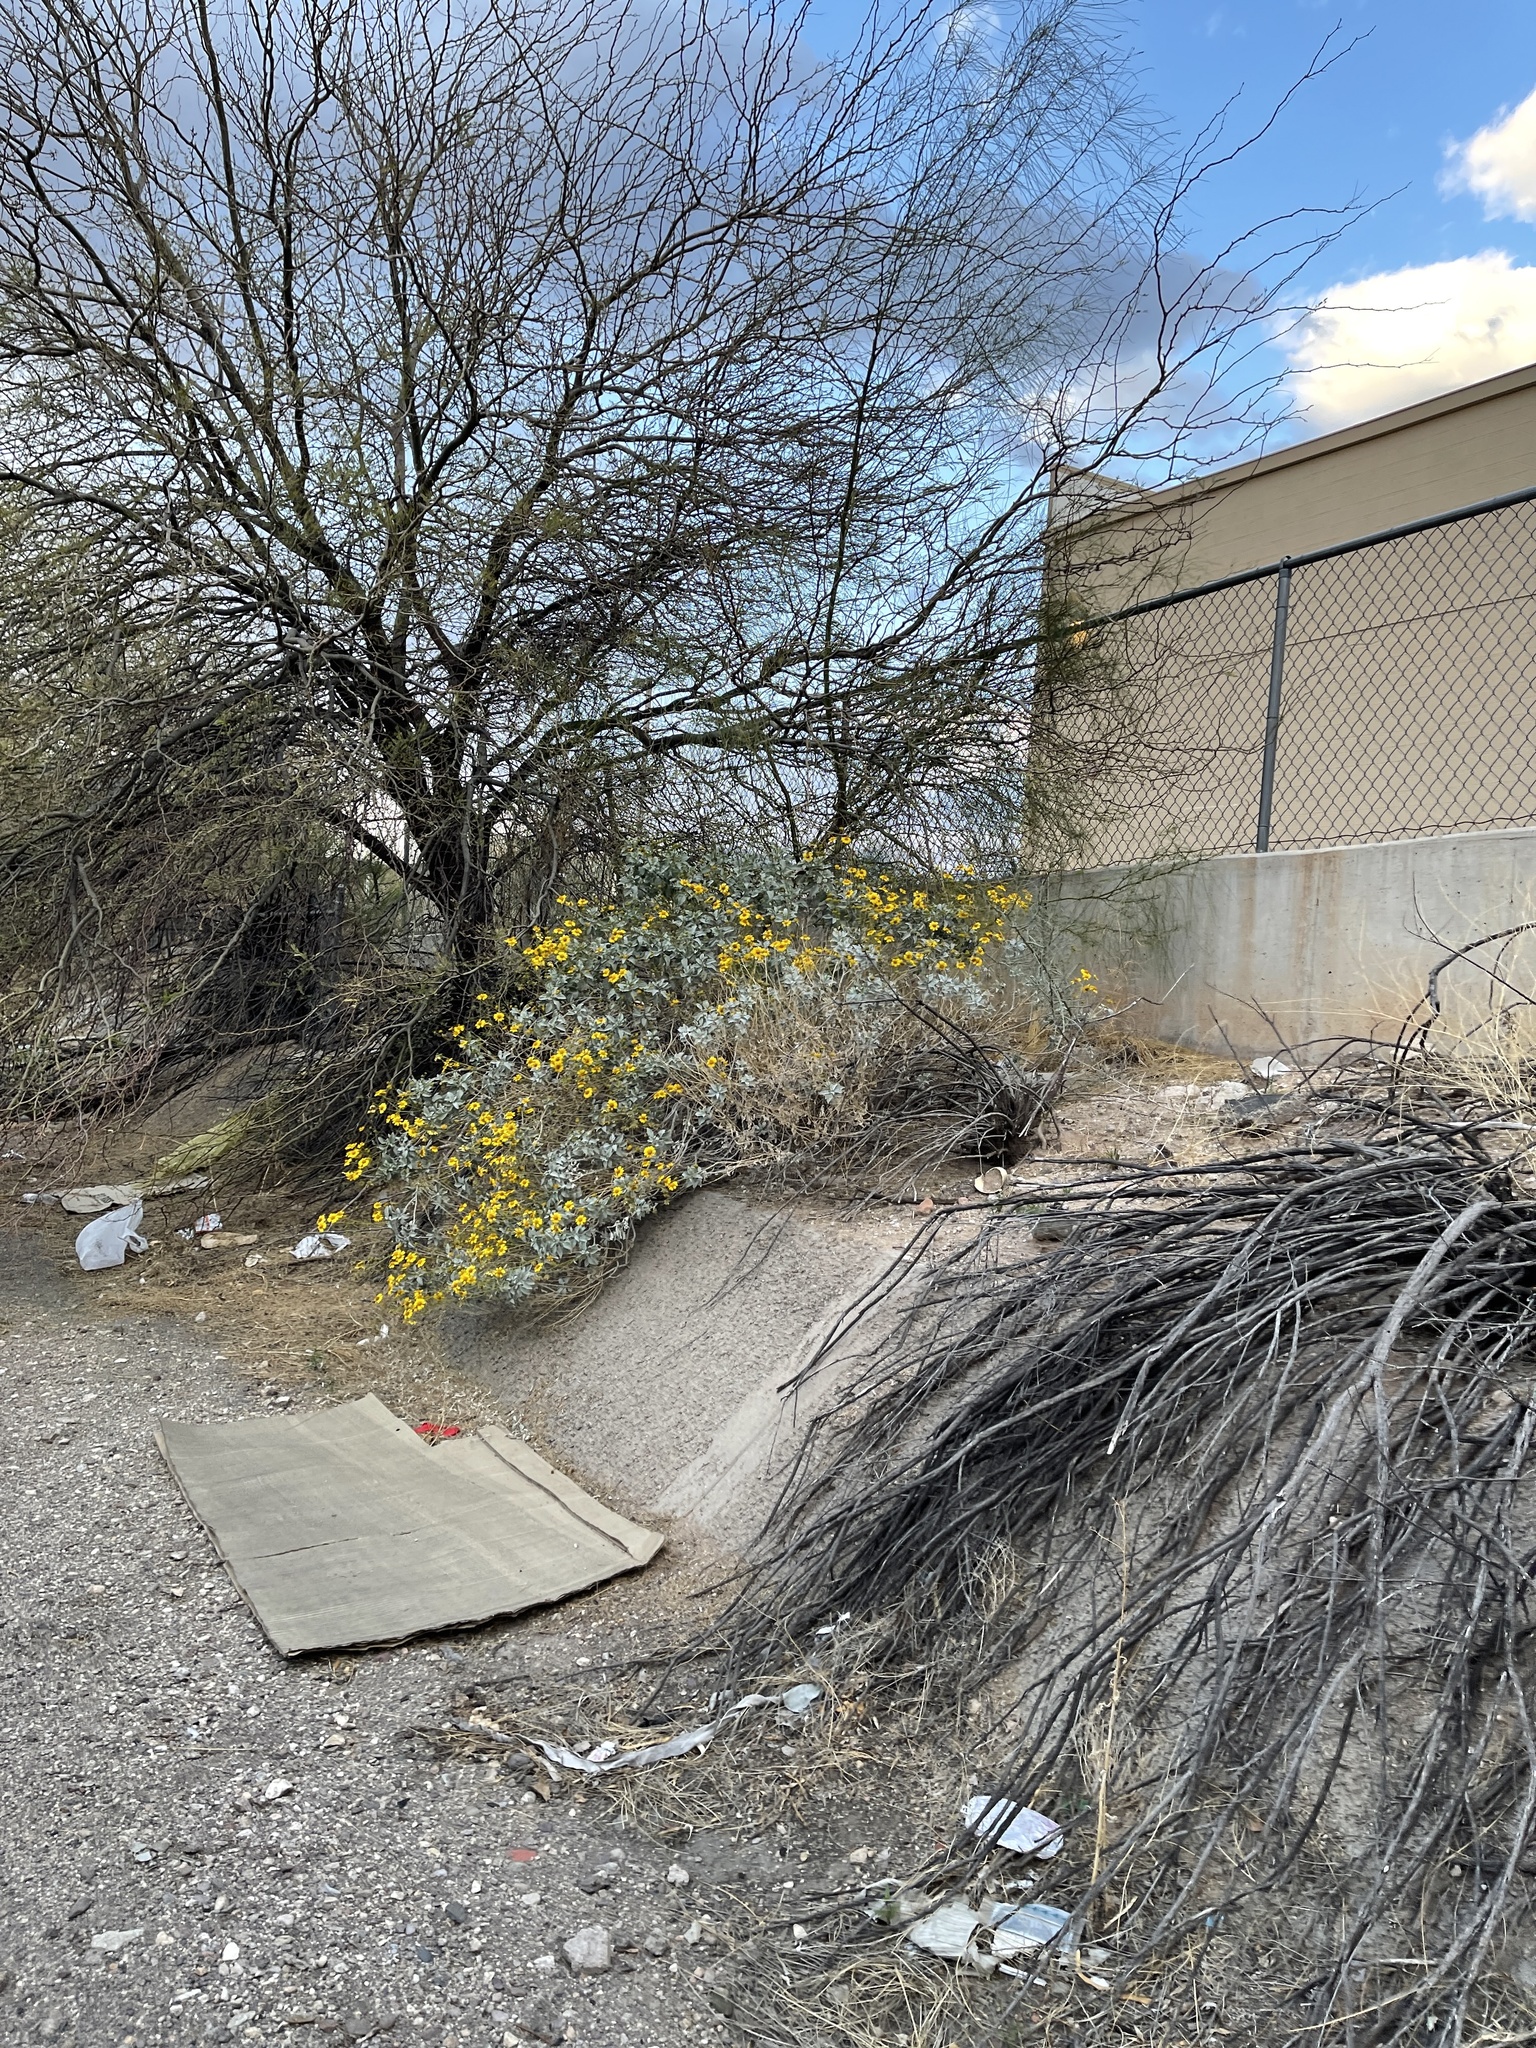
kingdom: Plantae
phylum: Tracheophyta
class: Magnoliopsida
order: Asterales
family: Asteraceae
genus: Encelia
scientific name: Encelia farinosa
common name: Brittlebush
